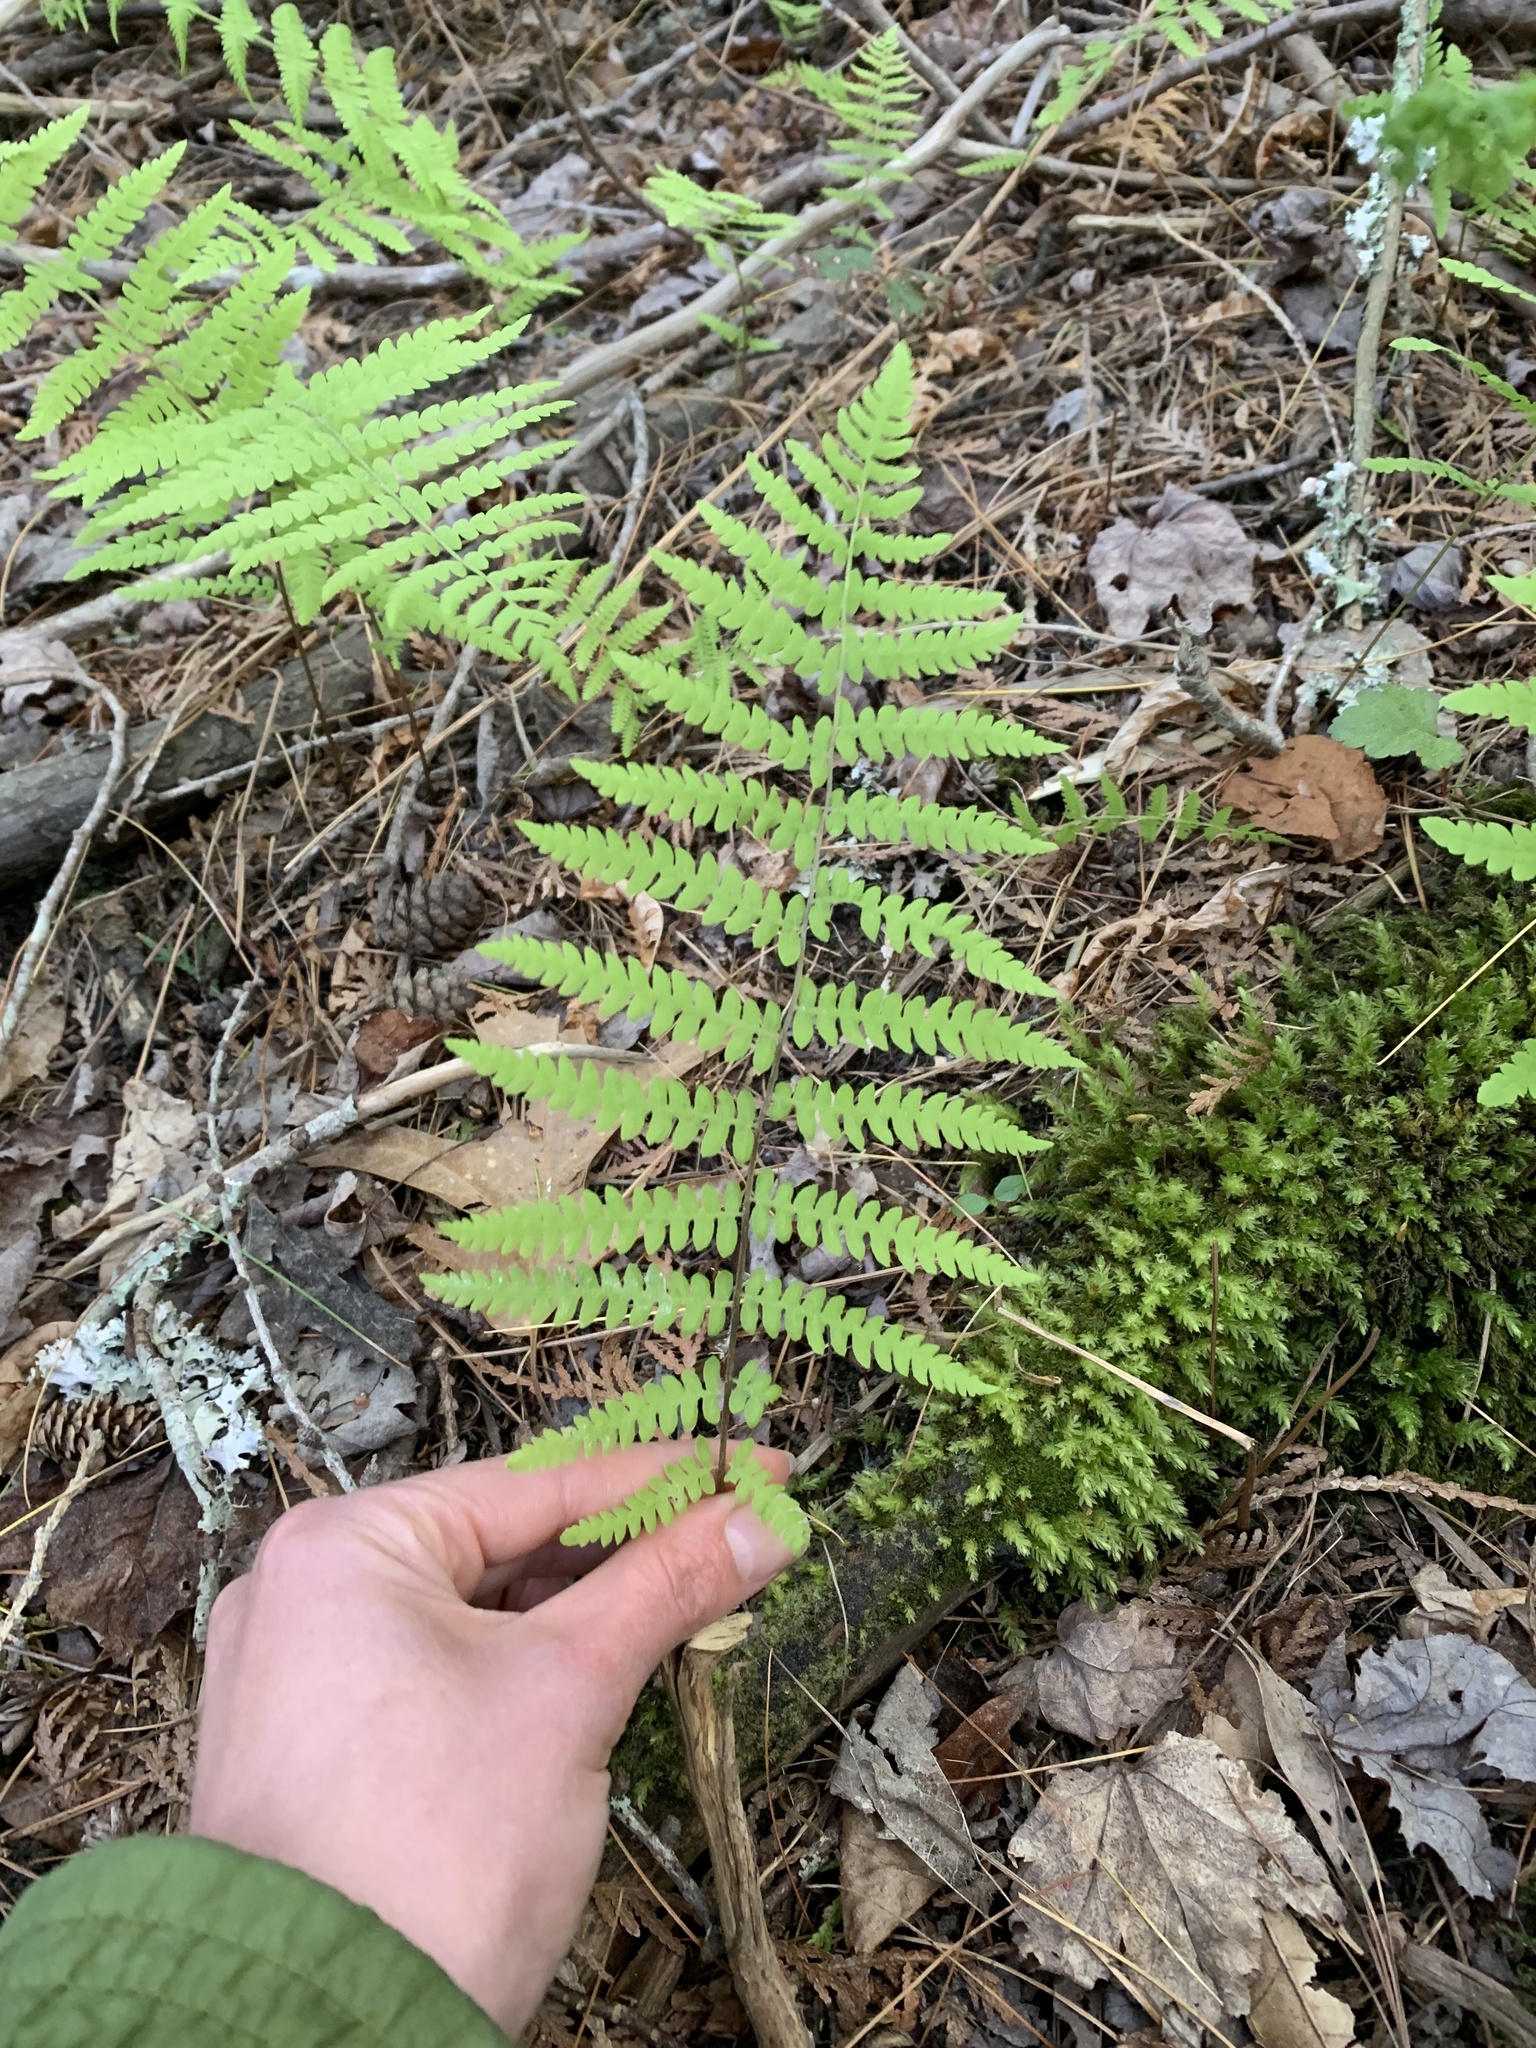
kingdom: Plantae
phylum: Tracheophyta
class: Polypodiopsida
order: Polypodiales
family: Thelypteridaceae
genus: Thelypteris
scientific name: Thelypteris palustris
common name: Marsh fern
